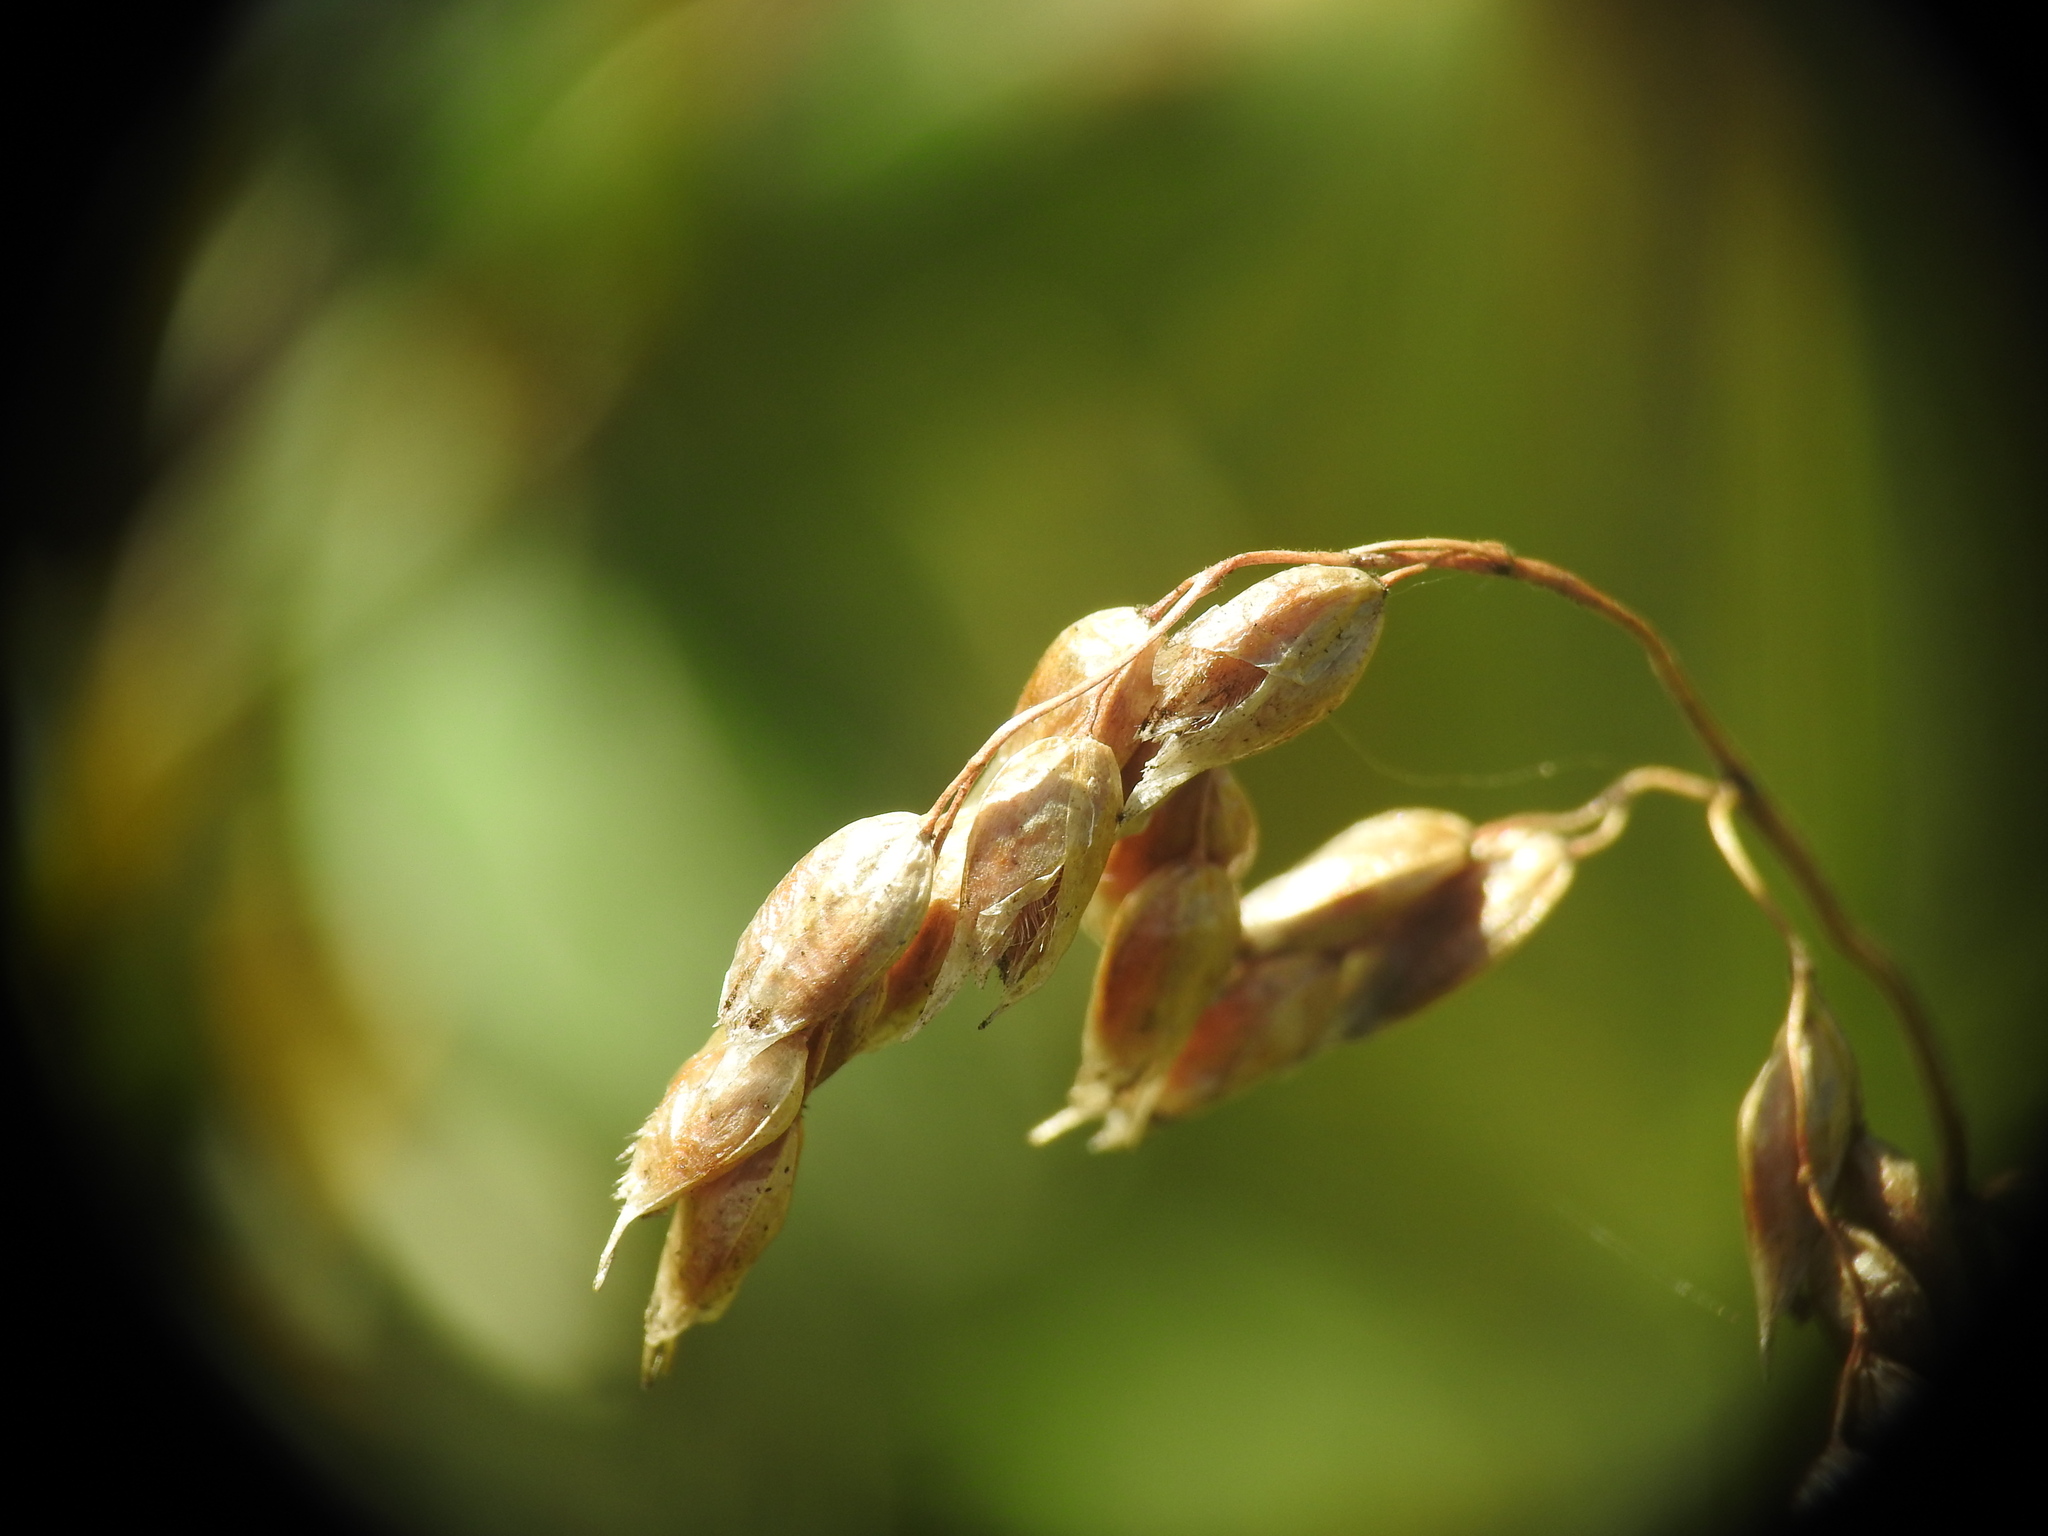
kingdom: Plantae
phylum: Tracheophyta
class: Liliopsida
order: Poales
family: Poaceae
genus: Anthoxanthum
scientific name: Anthoxanthum nitens
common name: Holy grass
